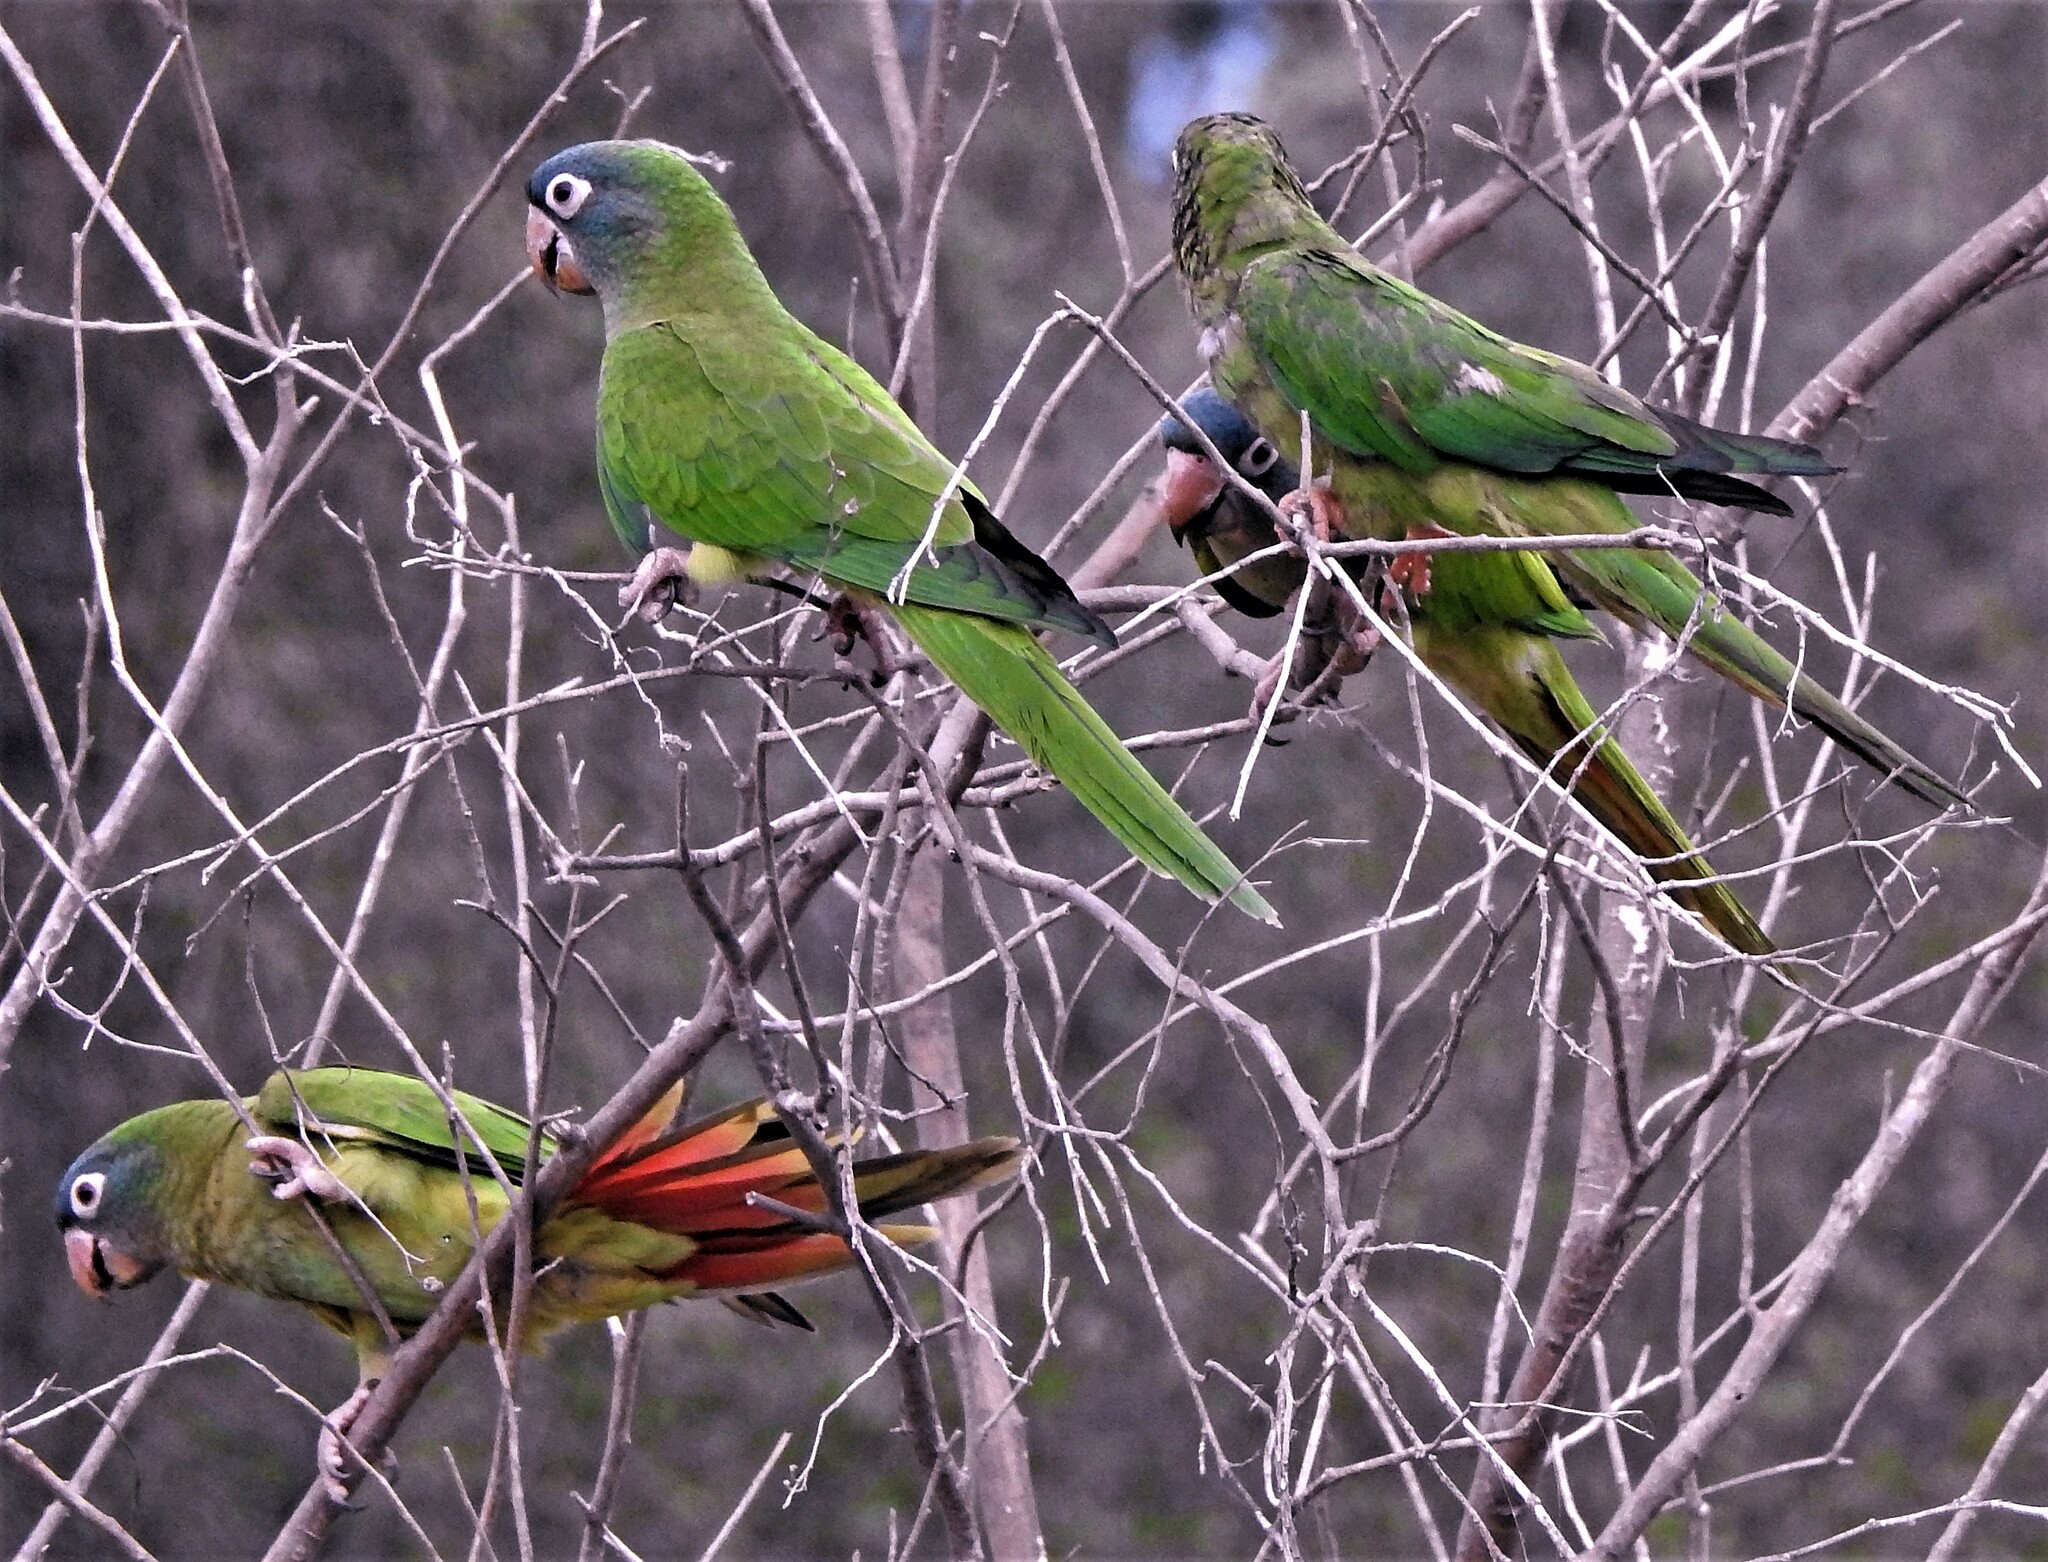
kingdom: Animalia
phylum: Chordata
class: Aves
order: Psittaciformes
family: Psittacidae
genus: Aratinga
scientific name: Aratinga acuticaudata
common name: Blue-crowned parakeet
